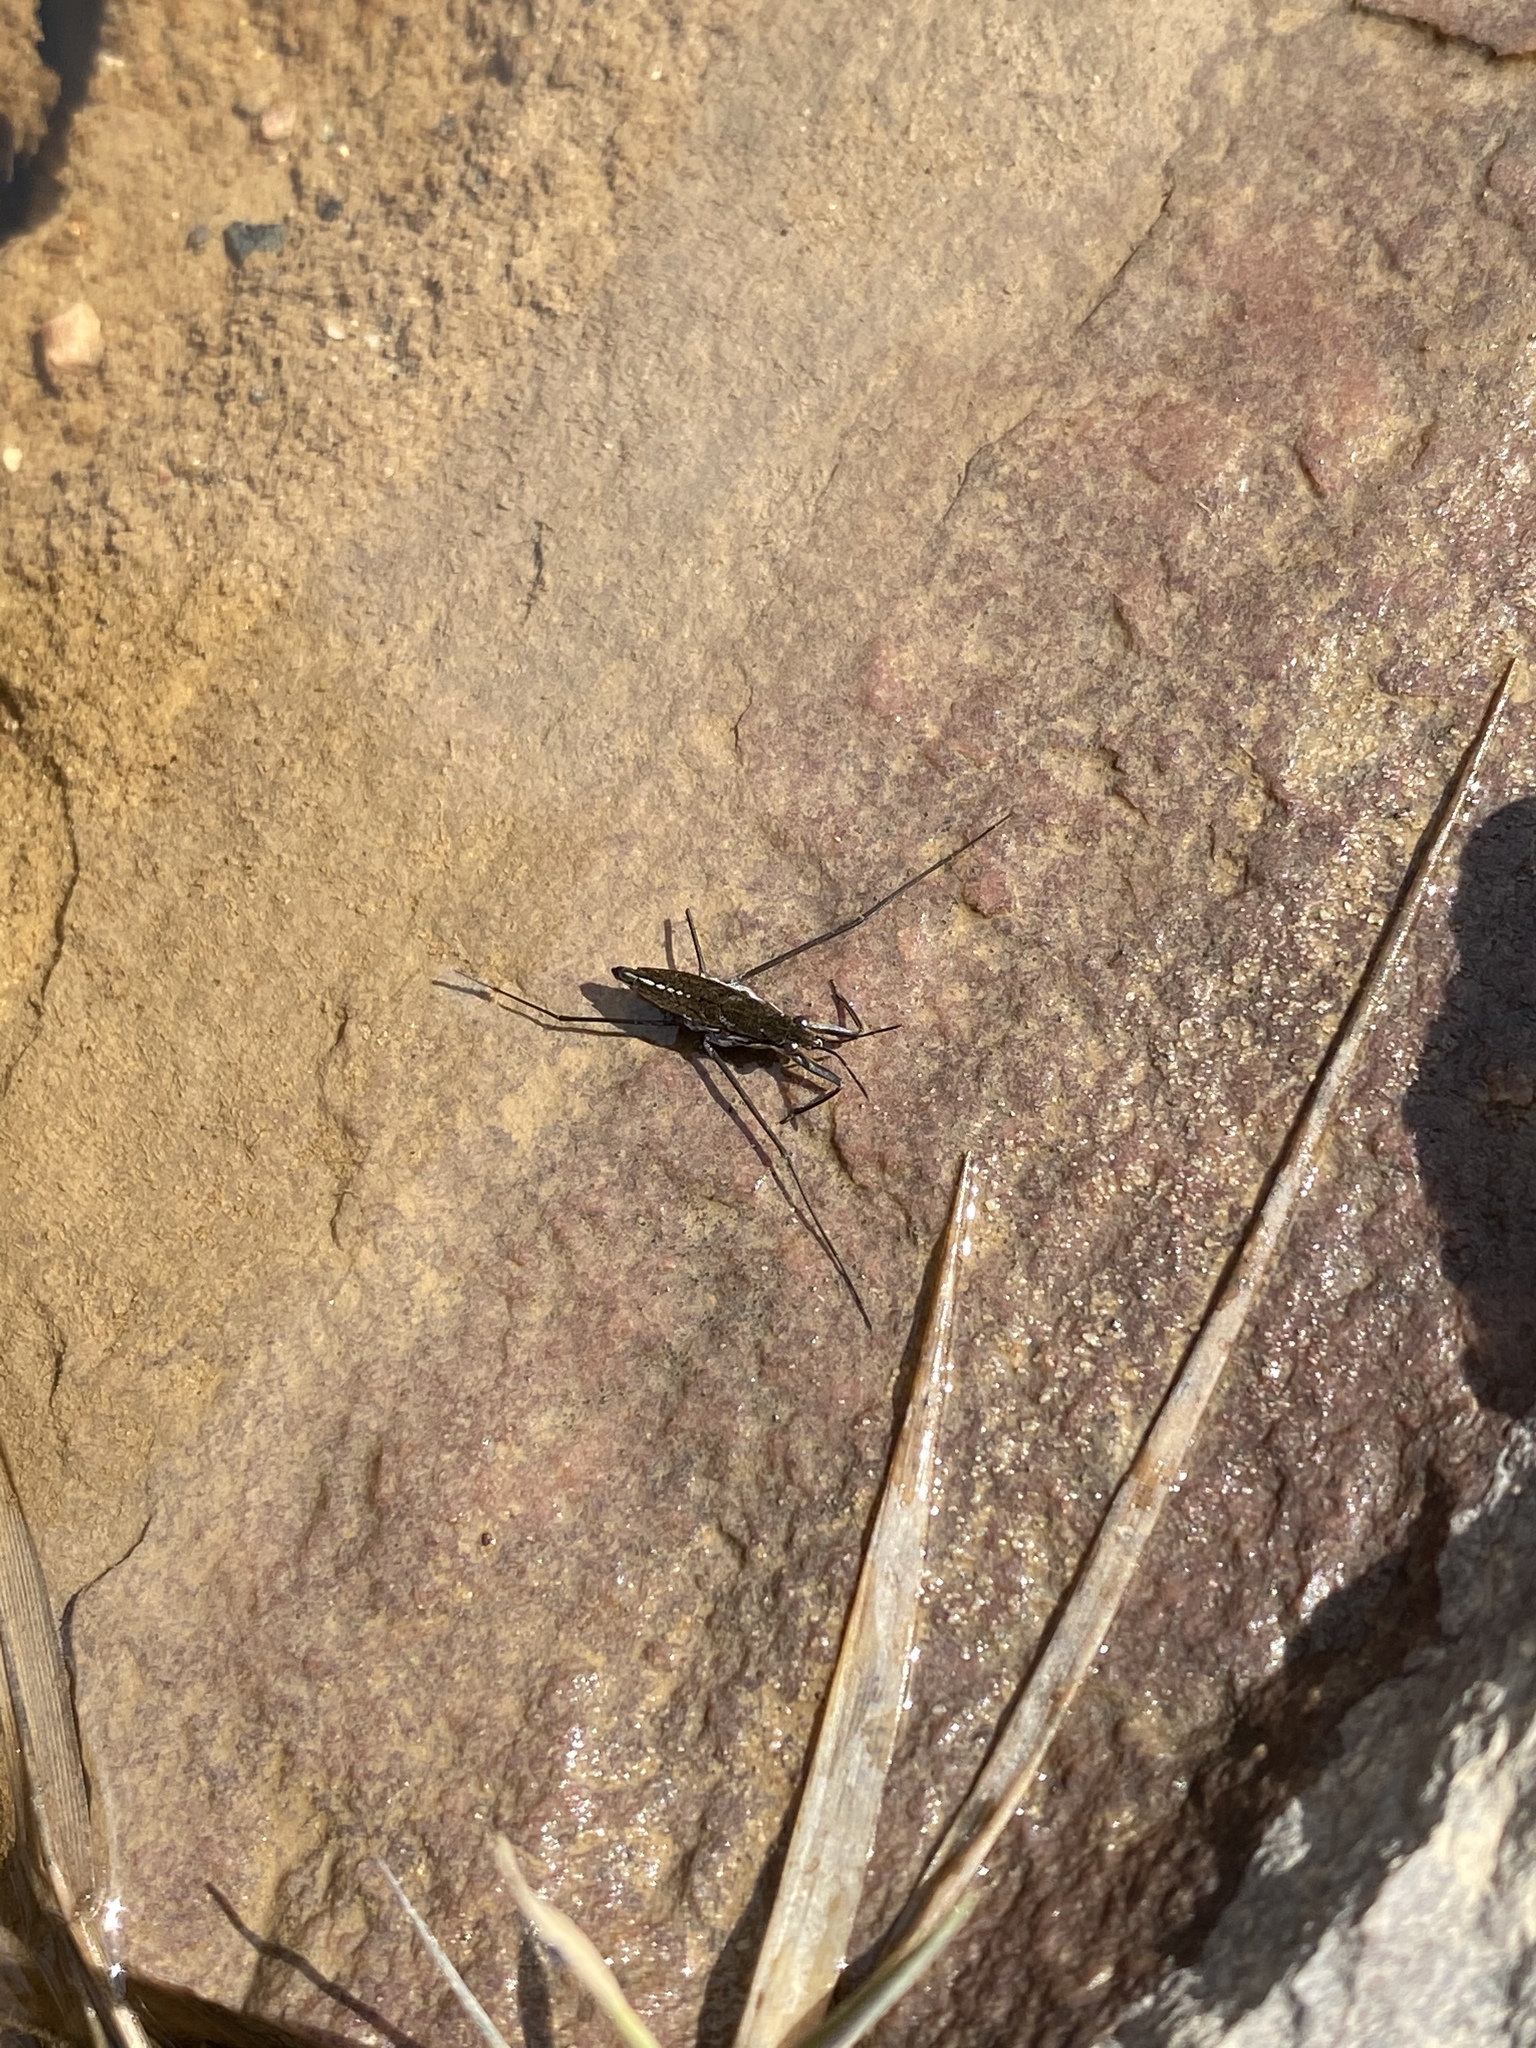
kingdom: Animalia
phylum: Arthropoda
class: Insecta
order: Hemiptera
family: Gerridae
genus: Aquarius
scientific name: Aquarius remigis
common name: Common water strider
